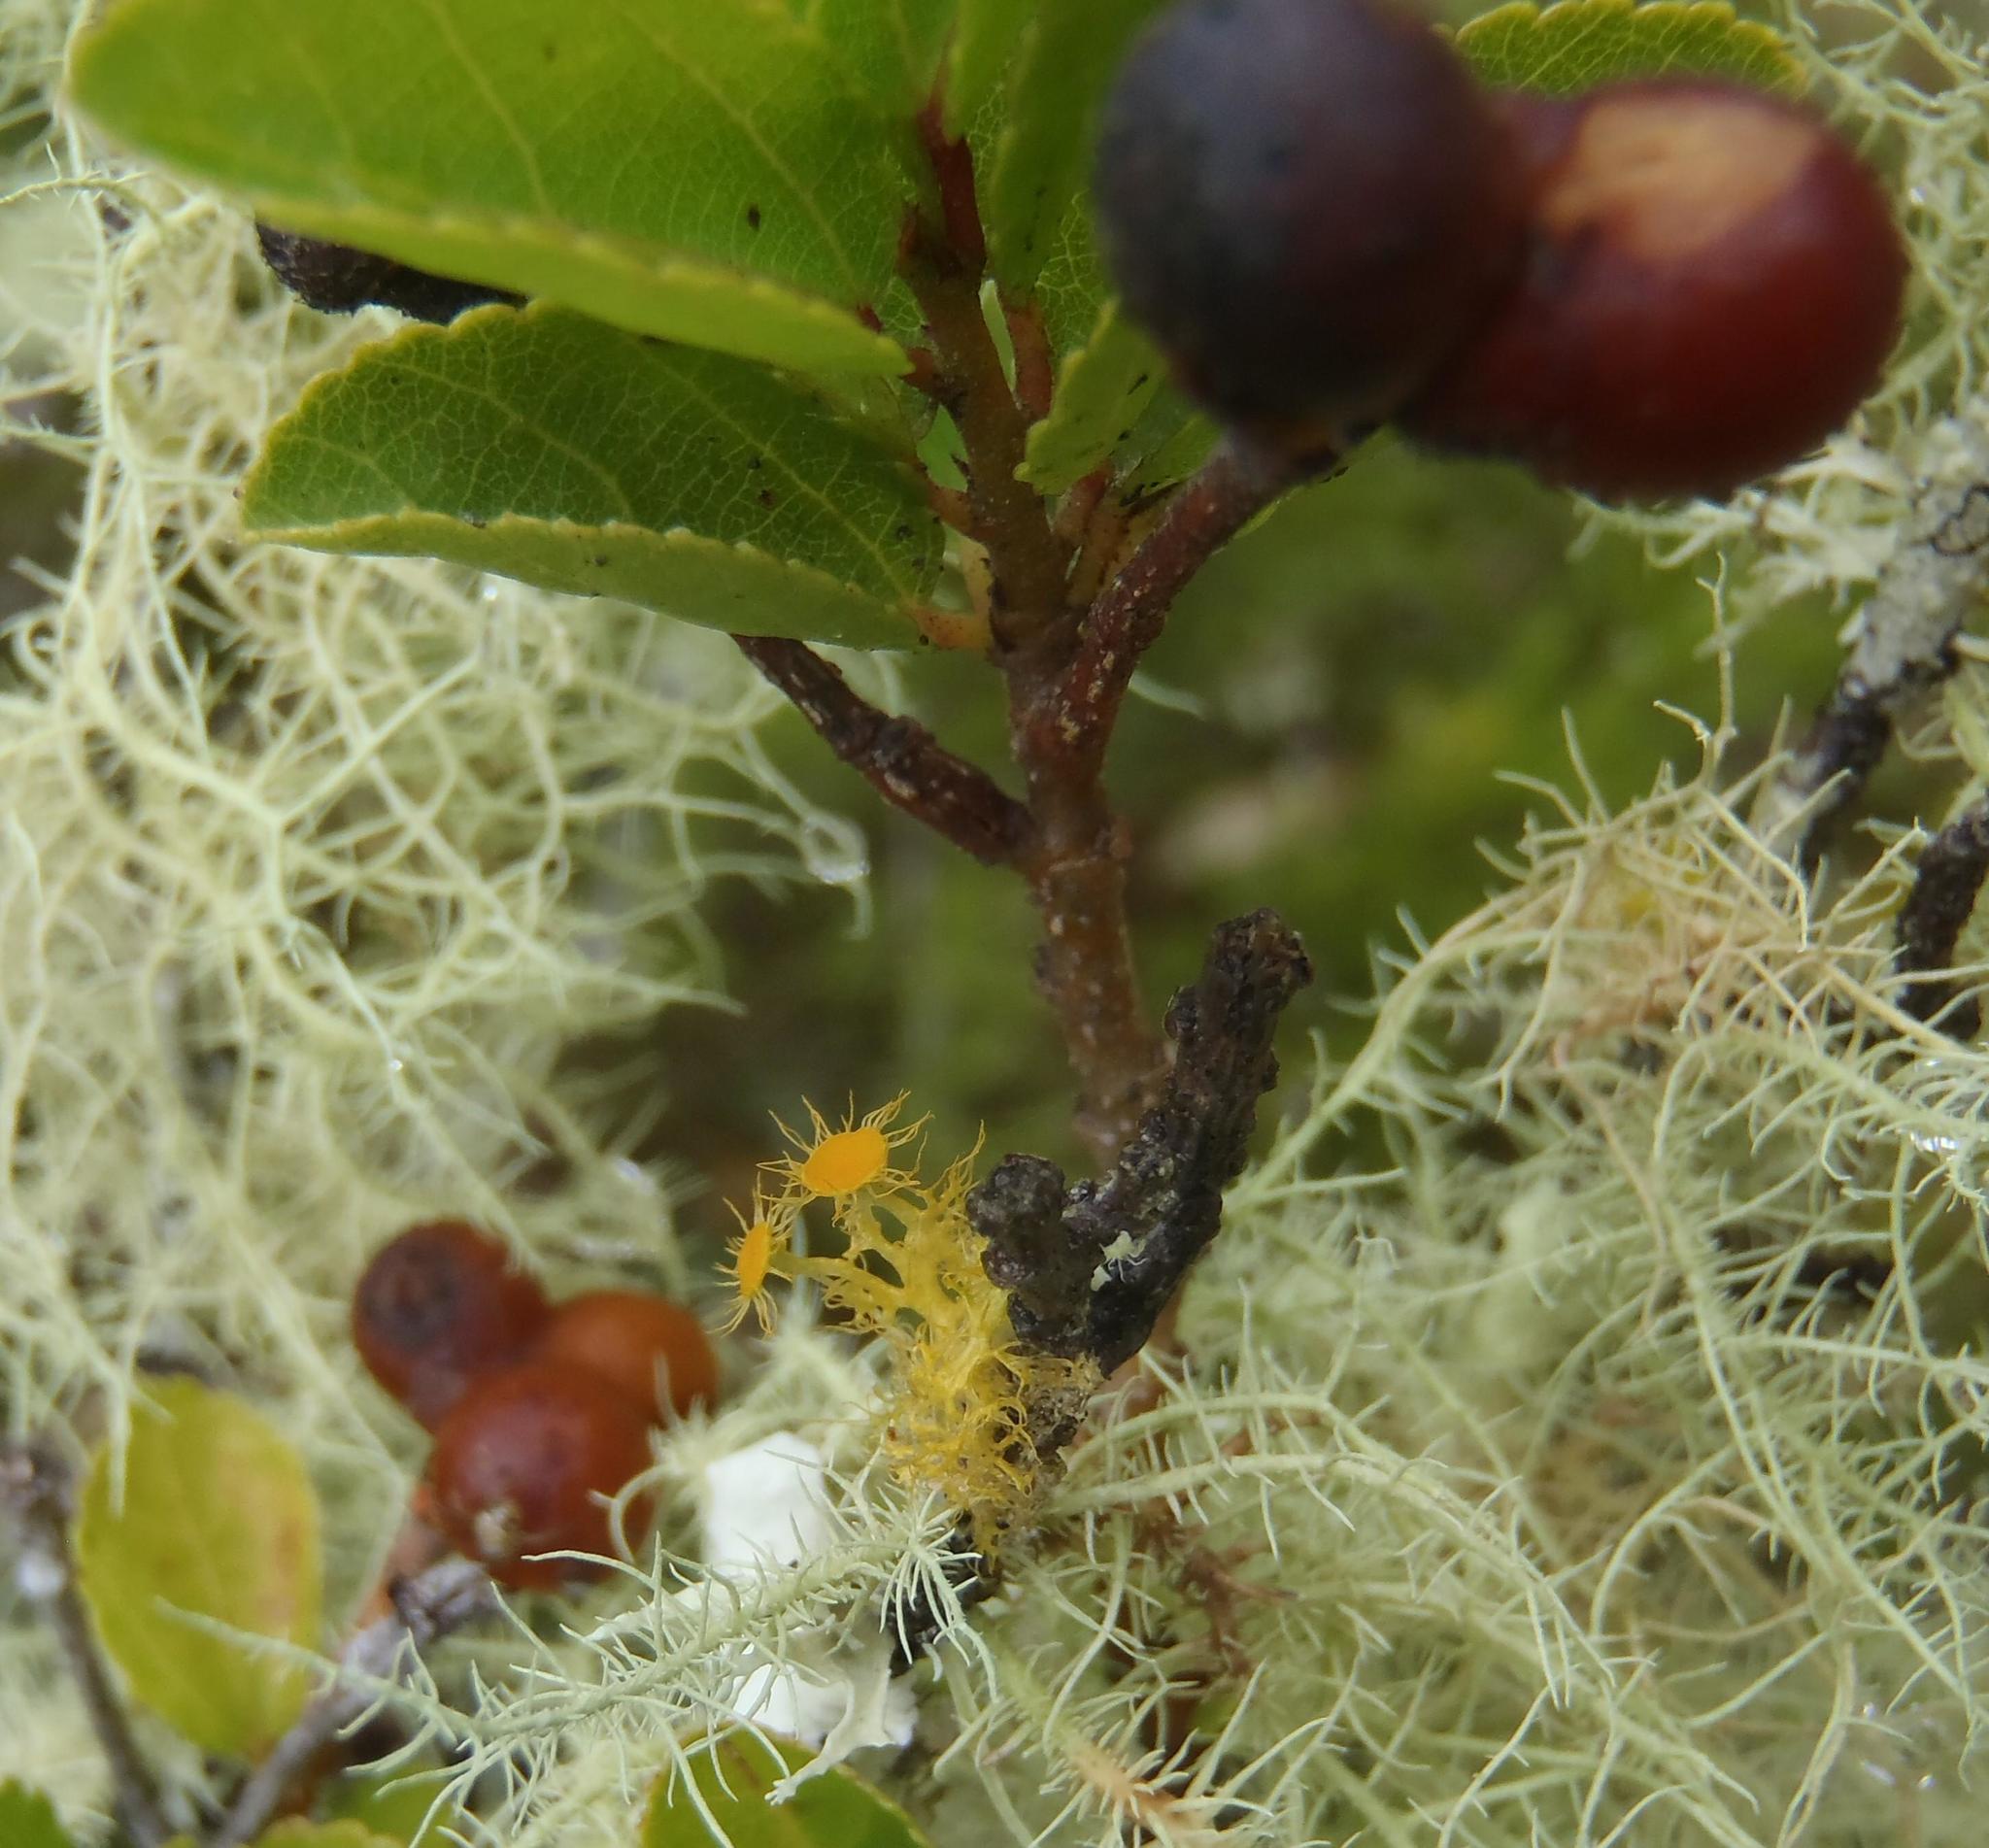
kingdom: Fungi
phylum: Ascomycota
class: Lecanoromycetes
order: Teloschistales
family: Teloschistaceae
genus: Niorma
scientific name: Niorma chrysophthalma
